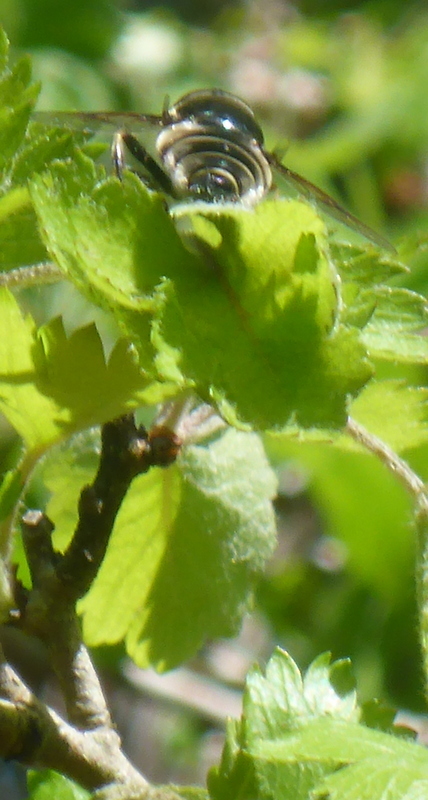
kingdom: Animalia
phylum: Arthropoda
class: Insecta
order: Diptera
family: Syrphidae
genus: Eristalis
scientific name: Eristalis saxorum
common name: Blue-polished drone fly
